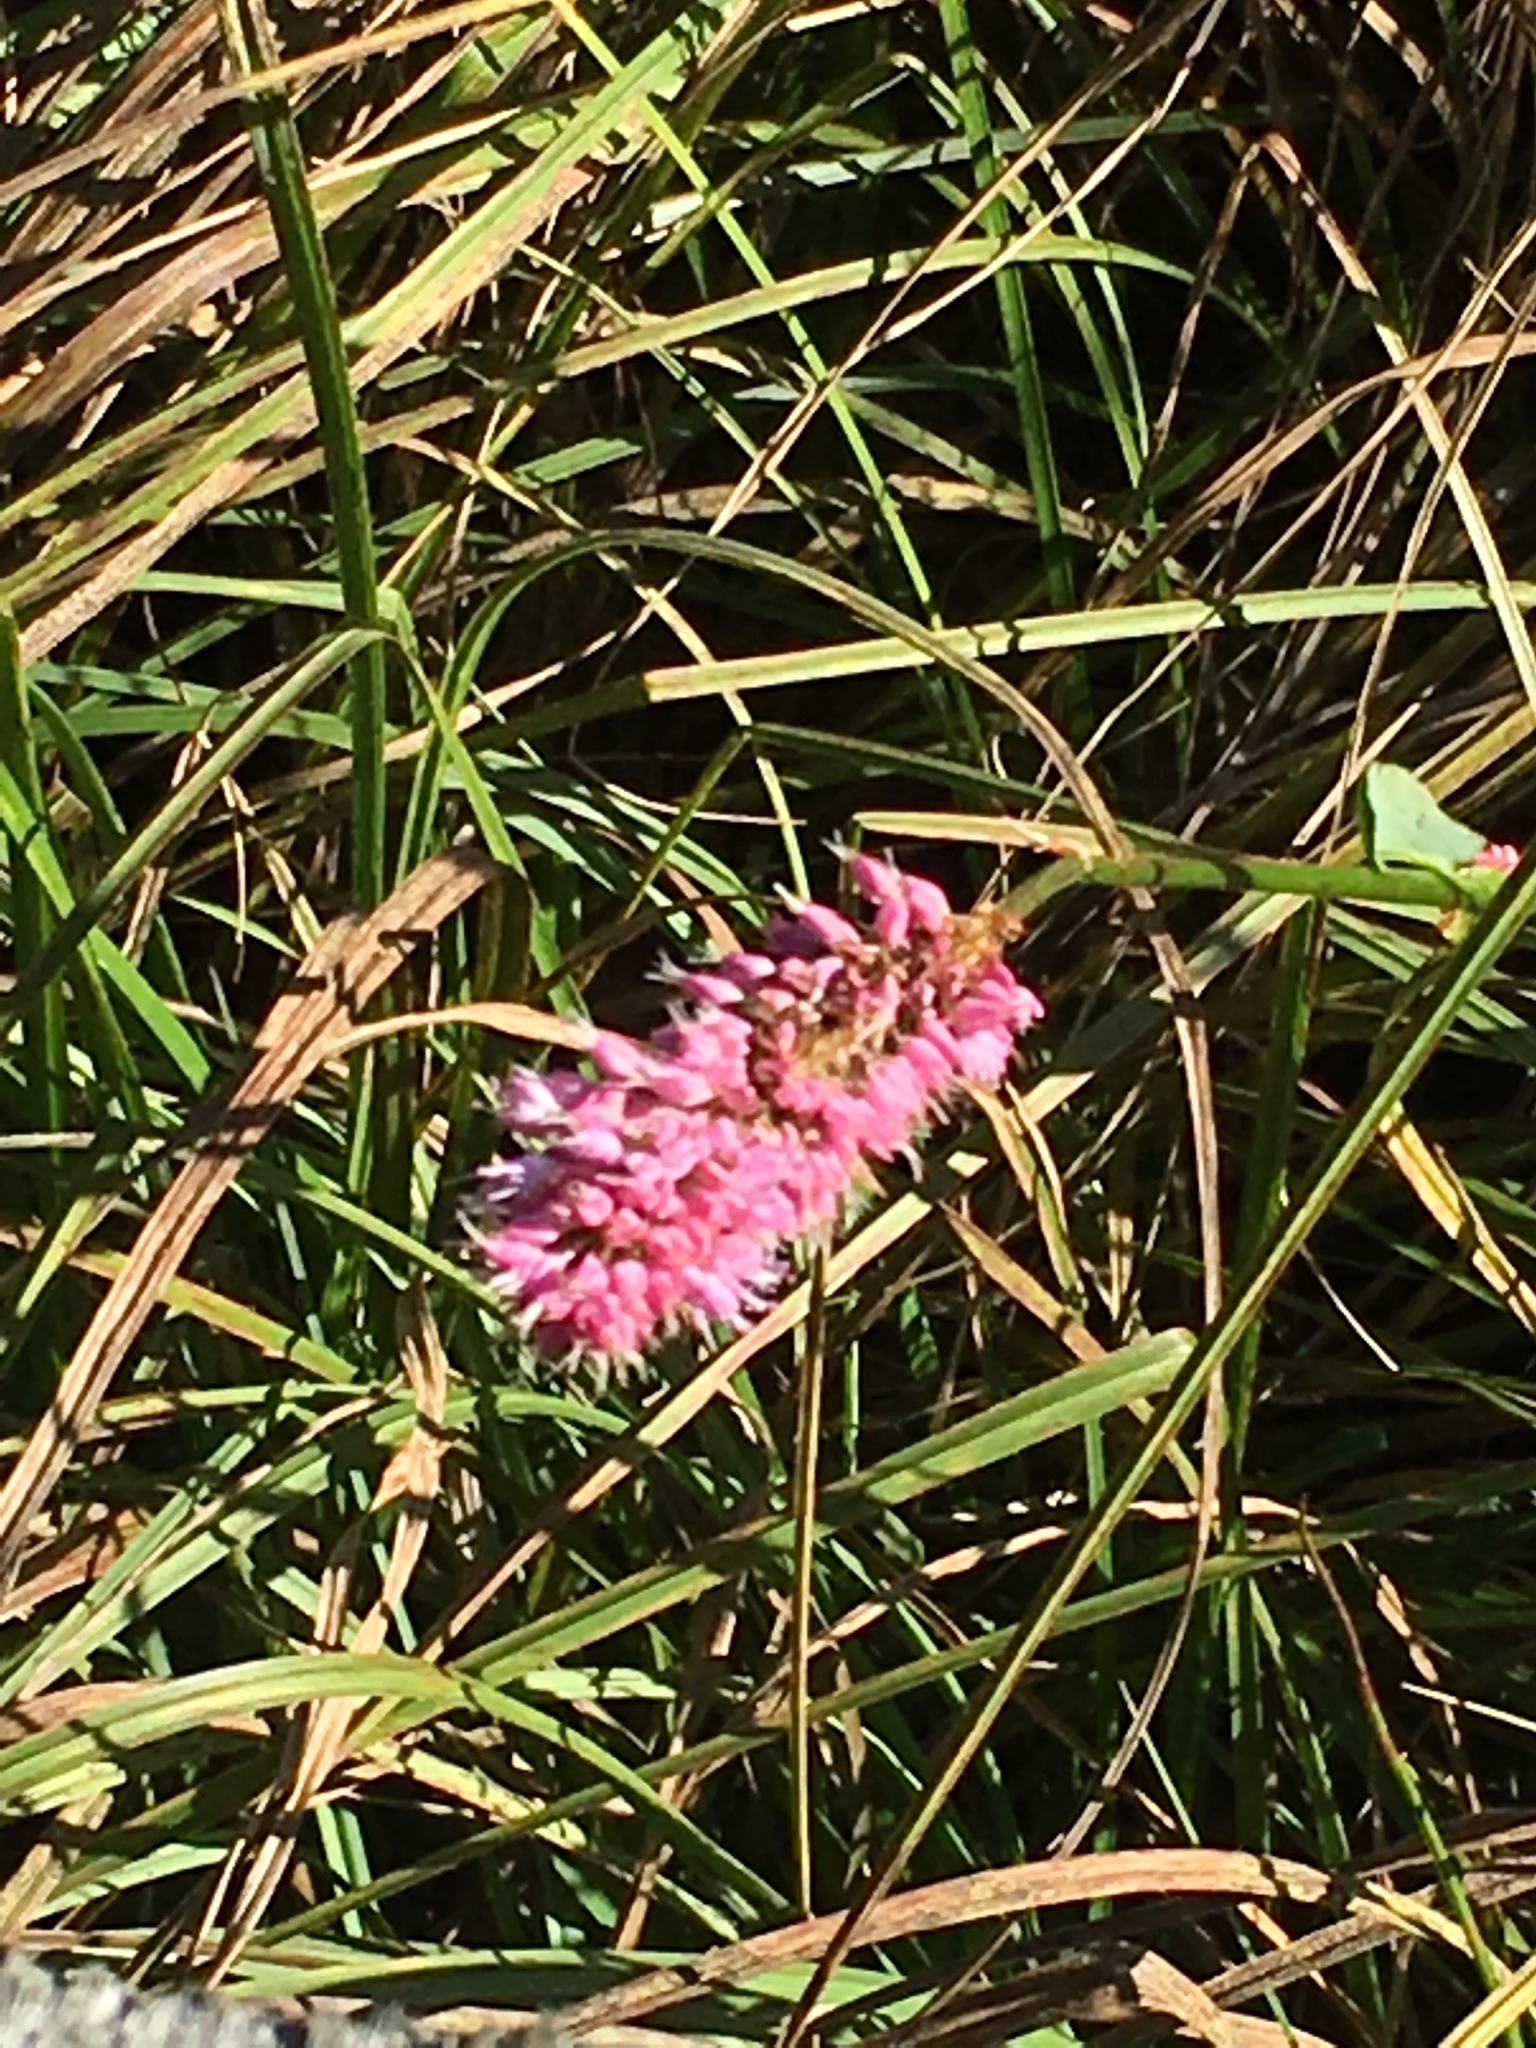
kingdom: Plantae
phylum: Tracheophyta
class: Magnoliopsida
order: Caryophyllales
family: Polygonaceae
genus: Bistorta
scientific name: Bistorta officinalis
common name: Common bistort
